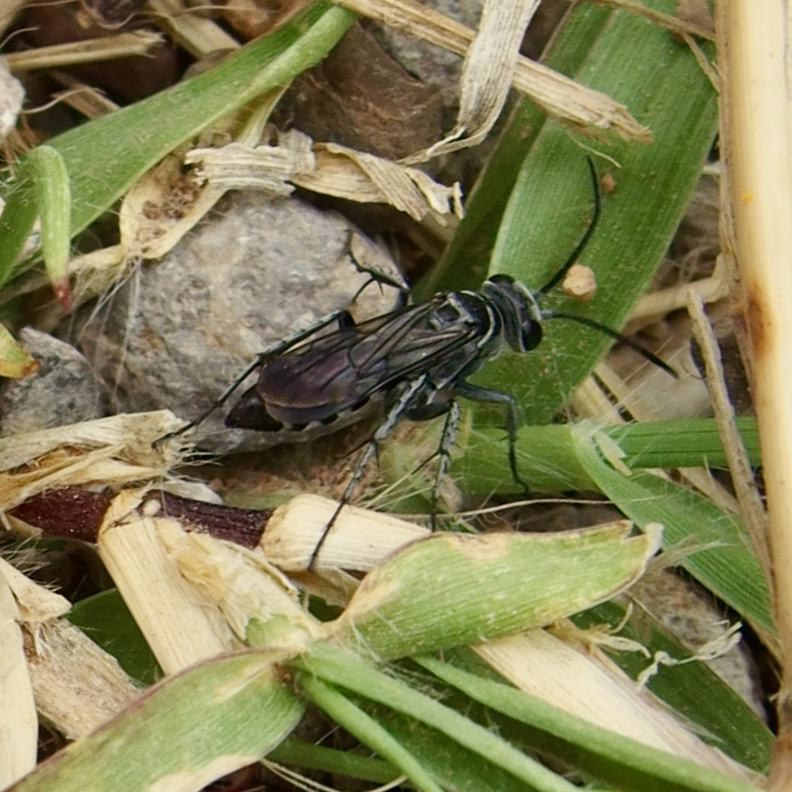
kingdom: Animalia
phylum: Arthropoda
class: Insecta
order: Hymenoptera
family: Pompilidae
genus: Aporinellus
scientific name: Aporinellus
